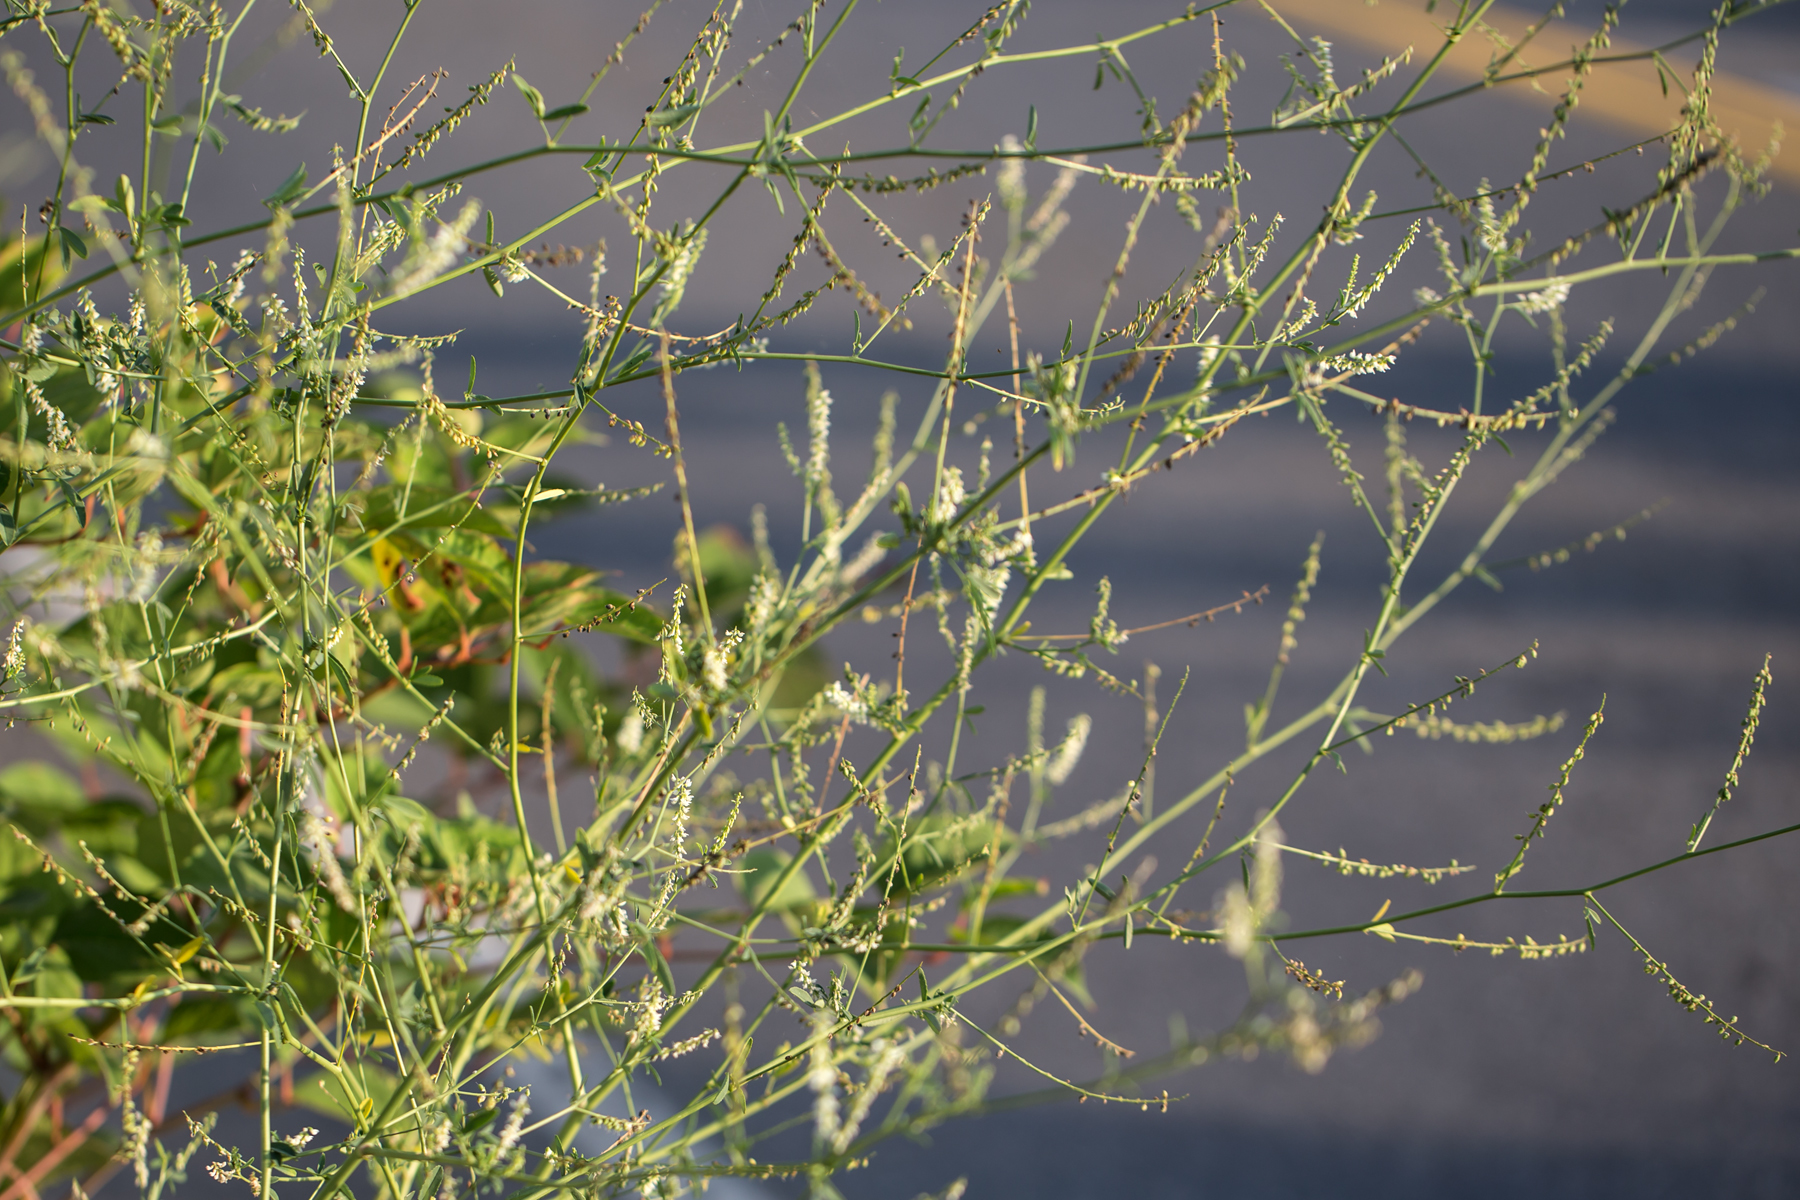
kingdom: Plantae
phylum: Tracheophyta
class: Magnoliopsida
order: Fabales
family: Fabaceae
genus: Melilotus
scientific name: Melilotus albus
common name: White melilot
